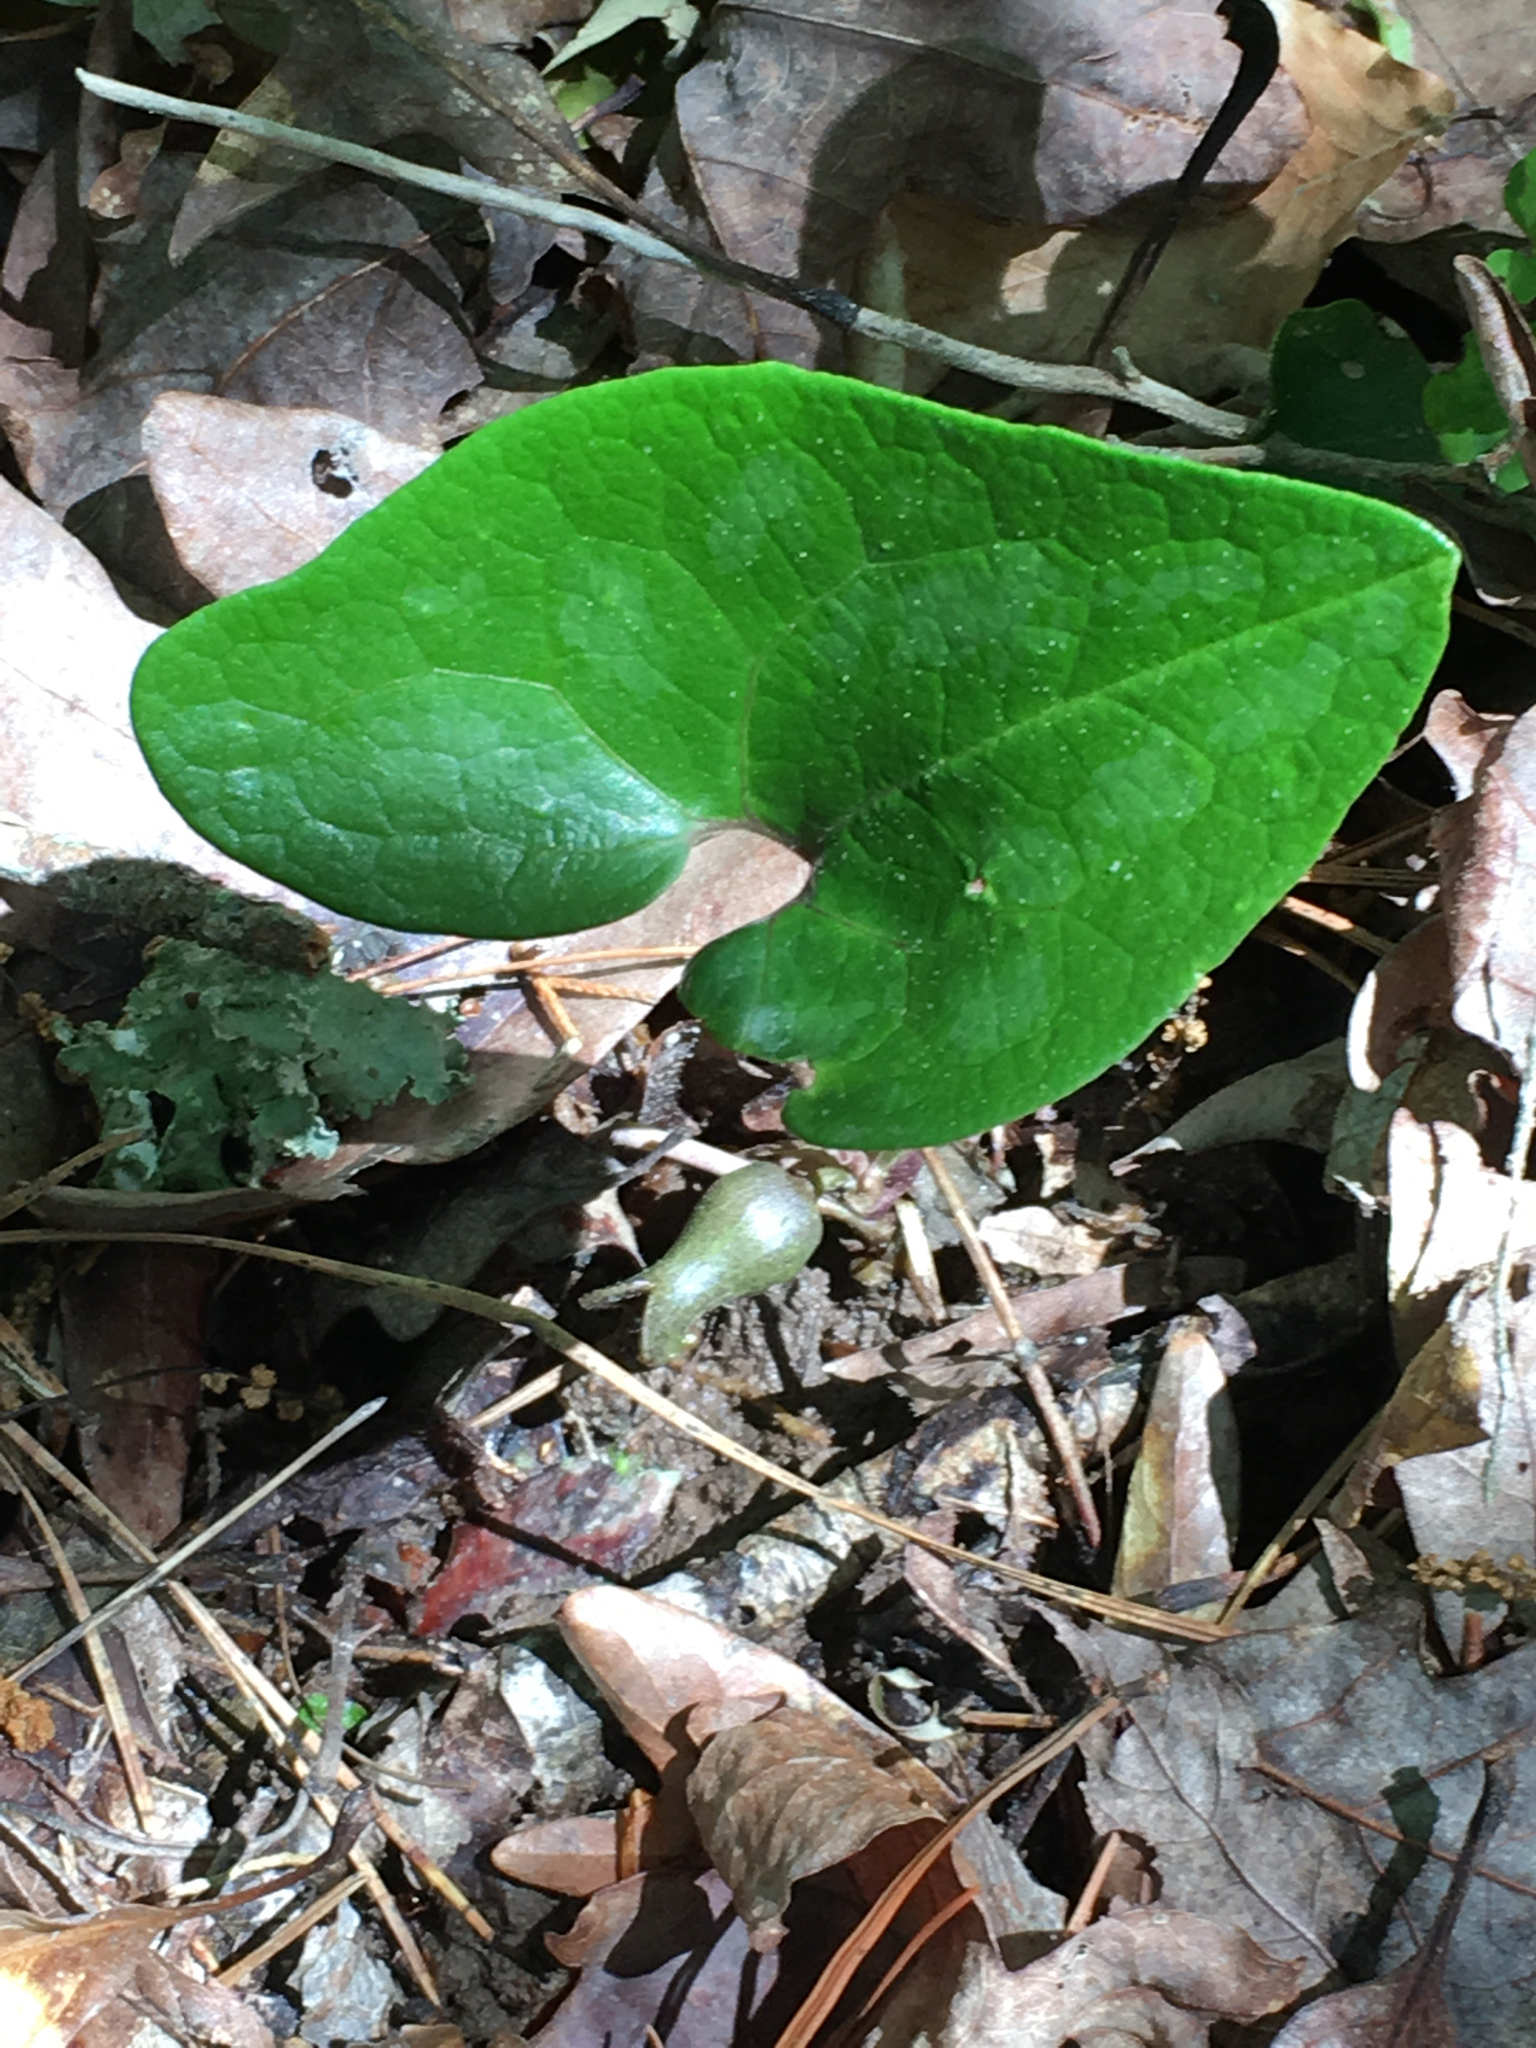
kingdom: Plantae
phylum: Tracheophyta
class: Magnoliopsida
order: Piperales
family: Aristolochiaceae
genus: Hexastylis
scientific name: Hexastylis arifolia
